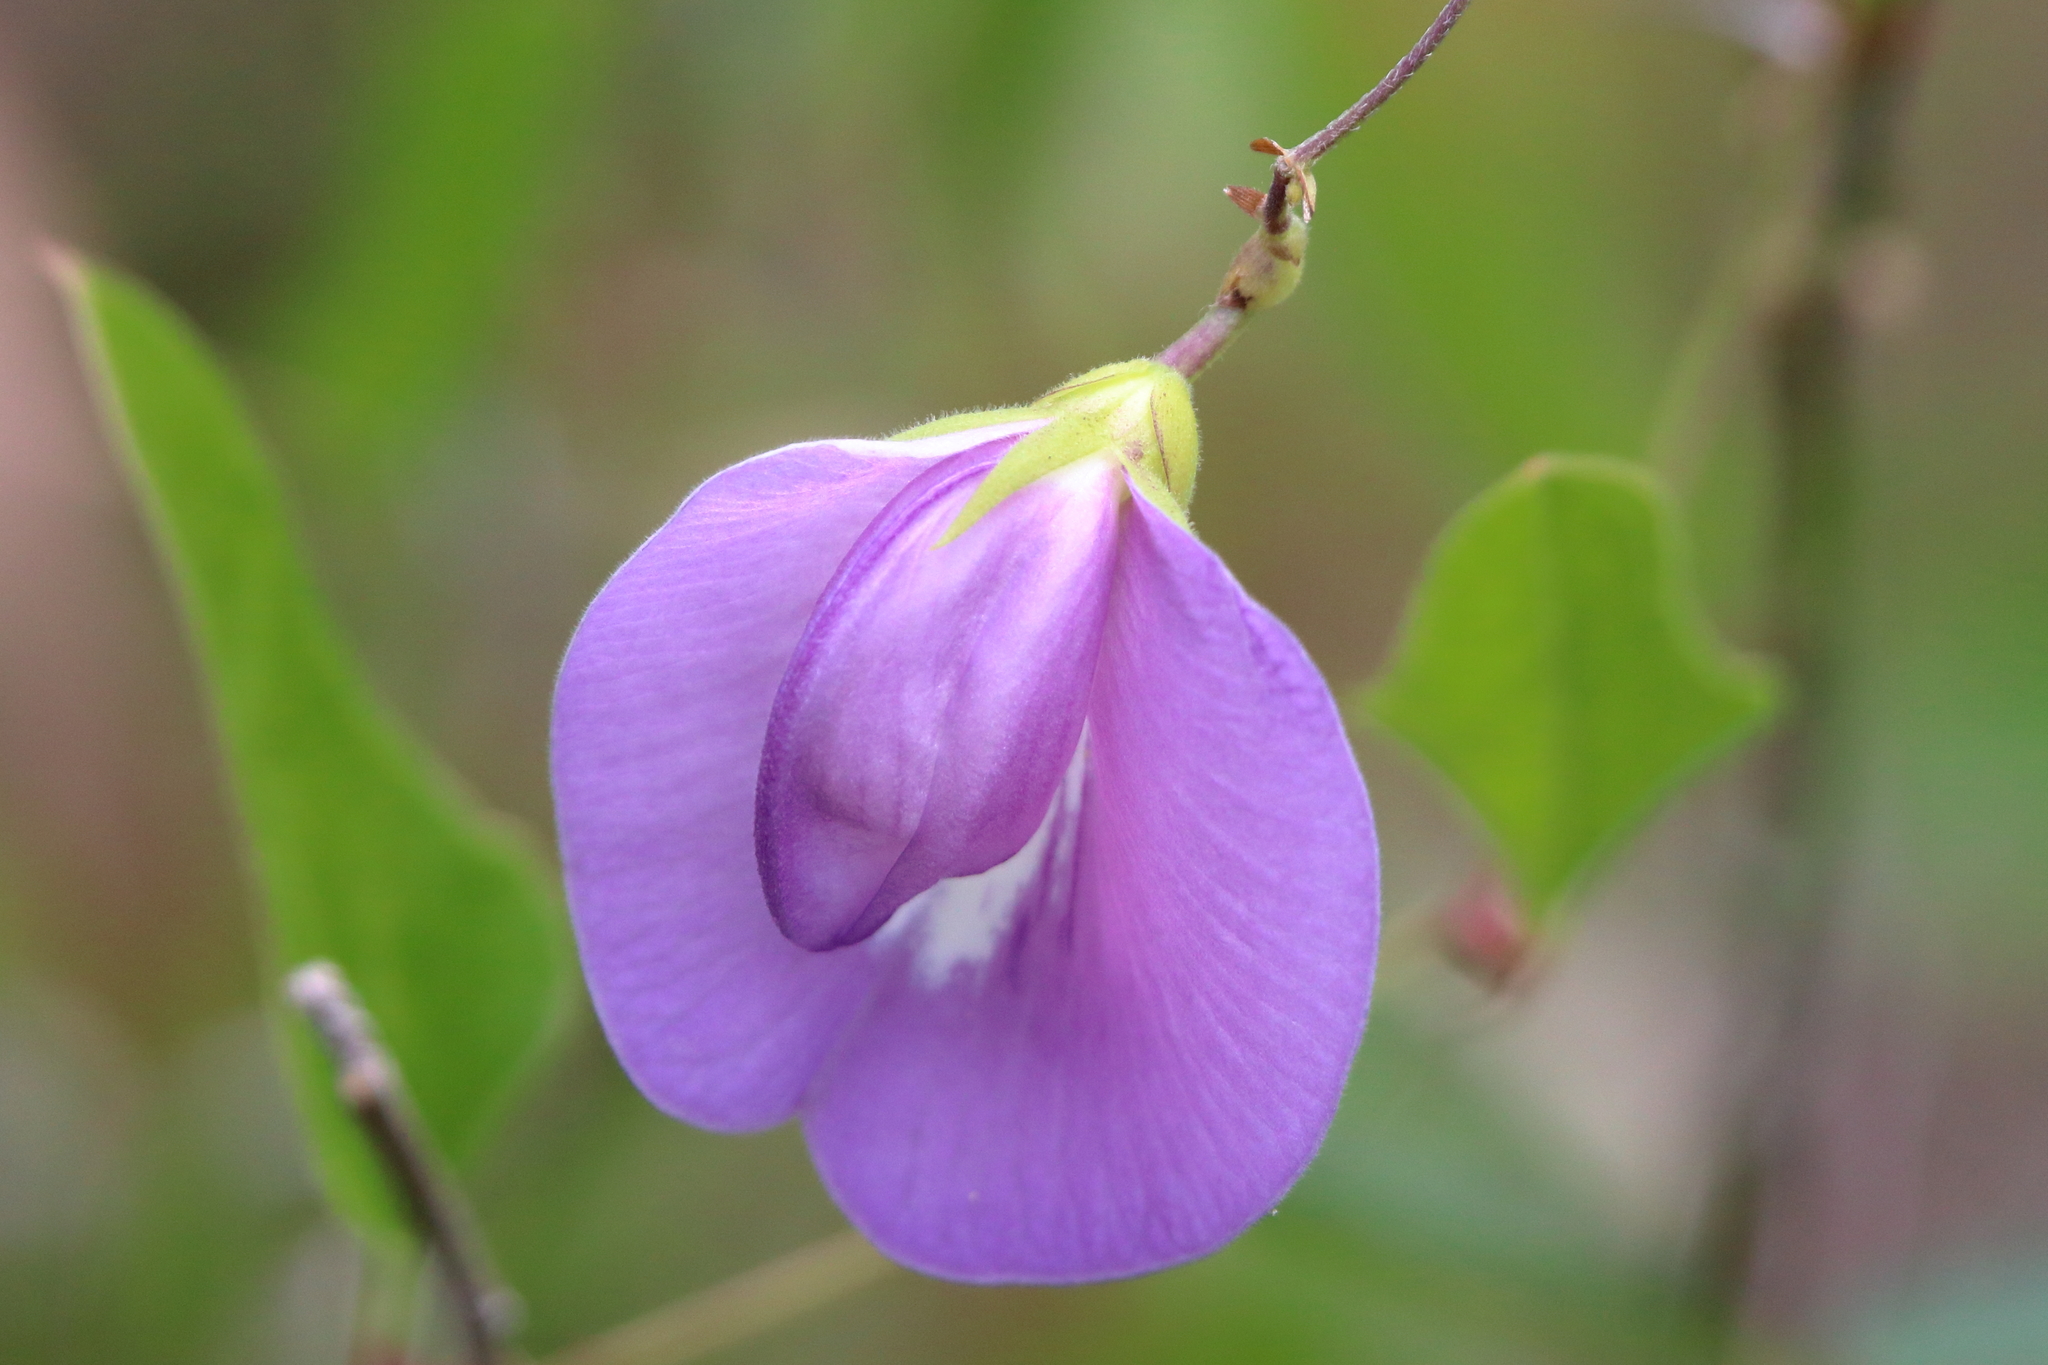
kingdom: Plantae
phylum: Tracheophyta
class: Magnoliopsida
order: Fabales
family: Fabaceae
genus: Centrosema
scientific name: Centrosema virginianum
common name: Butterfly-pea
